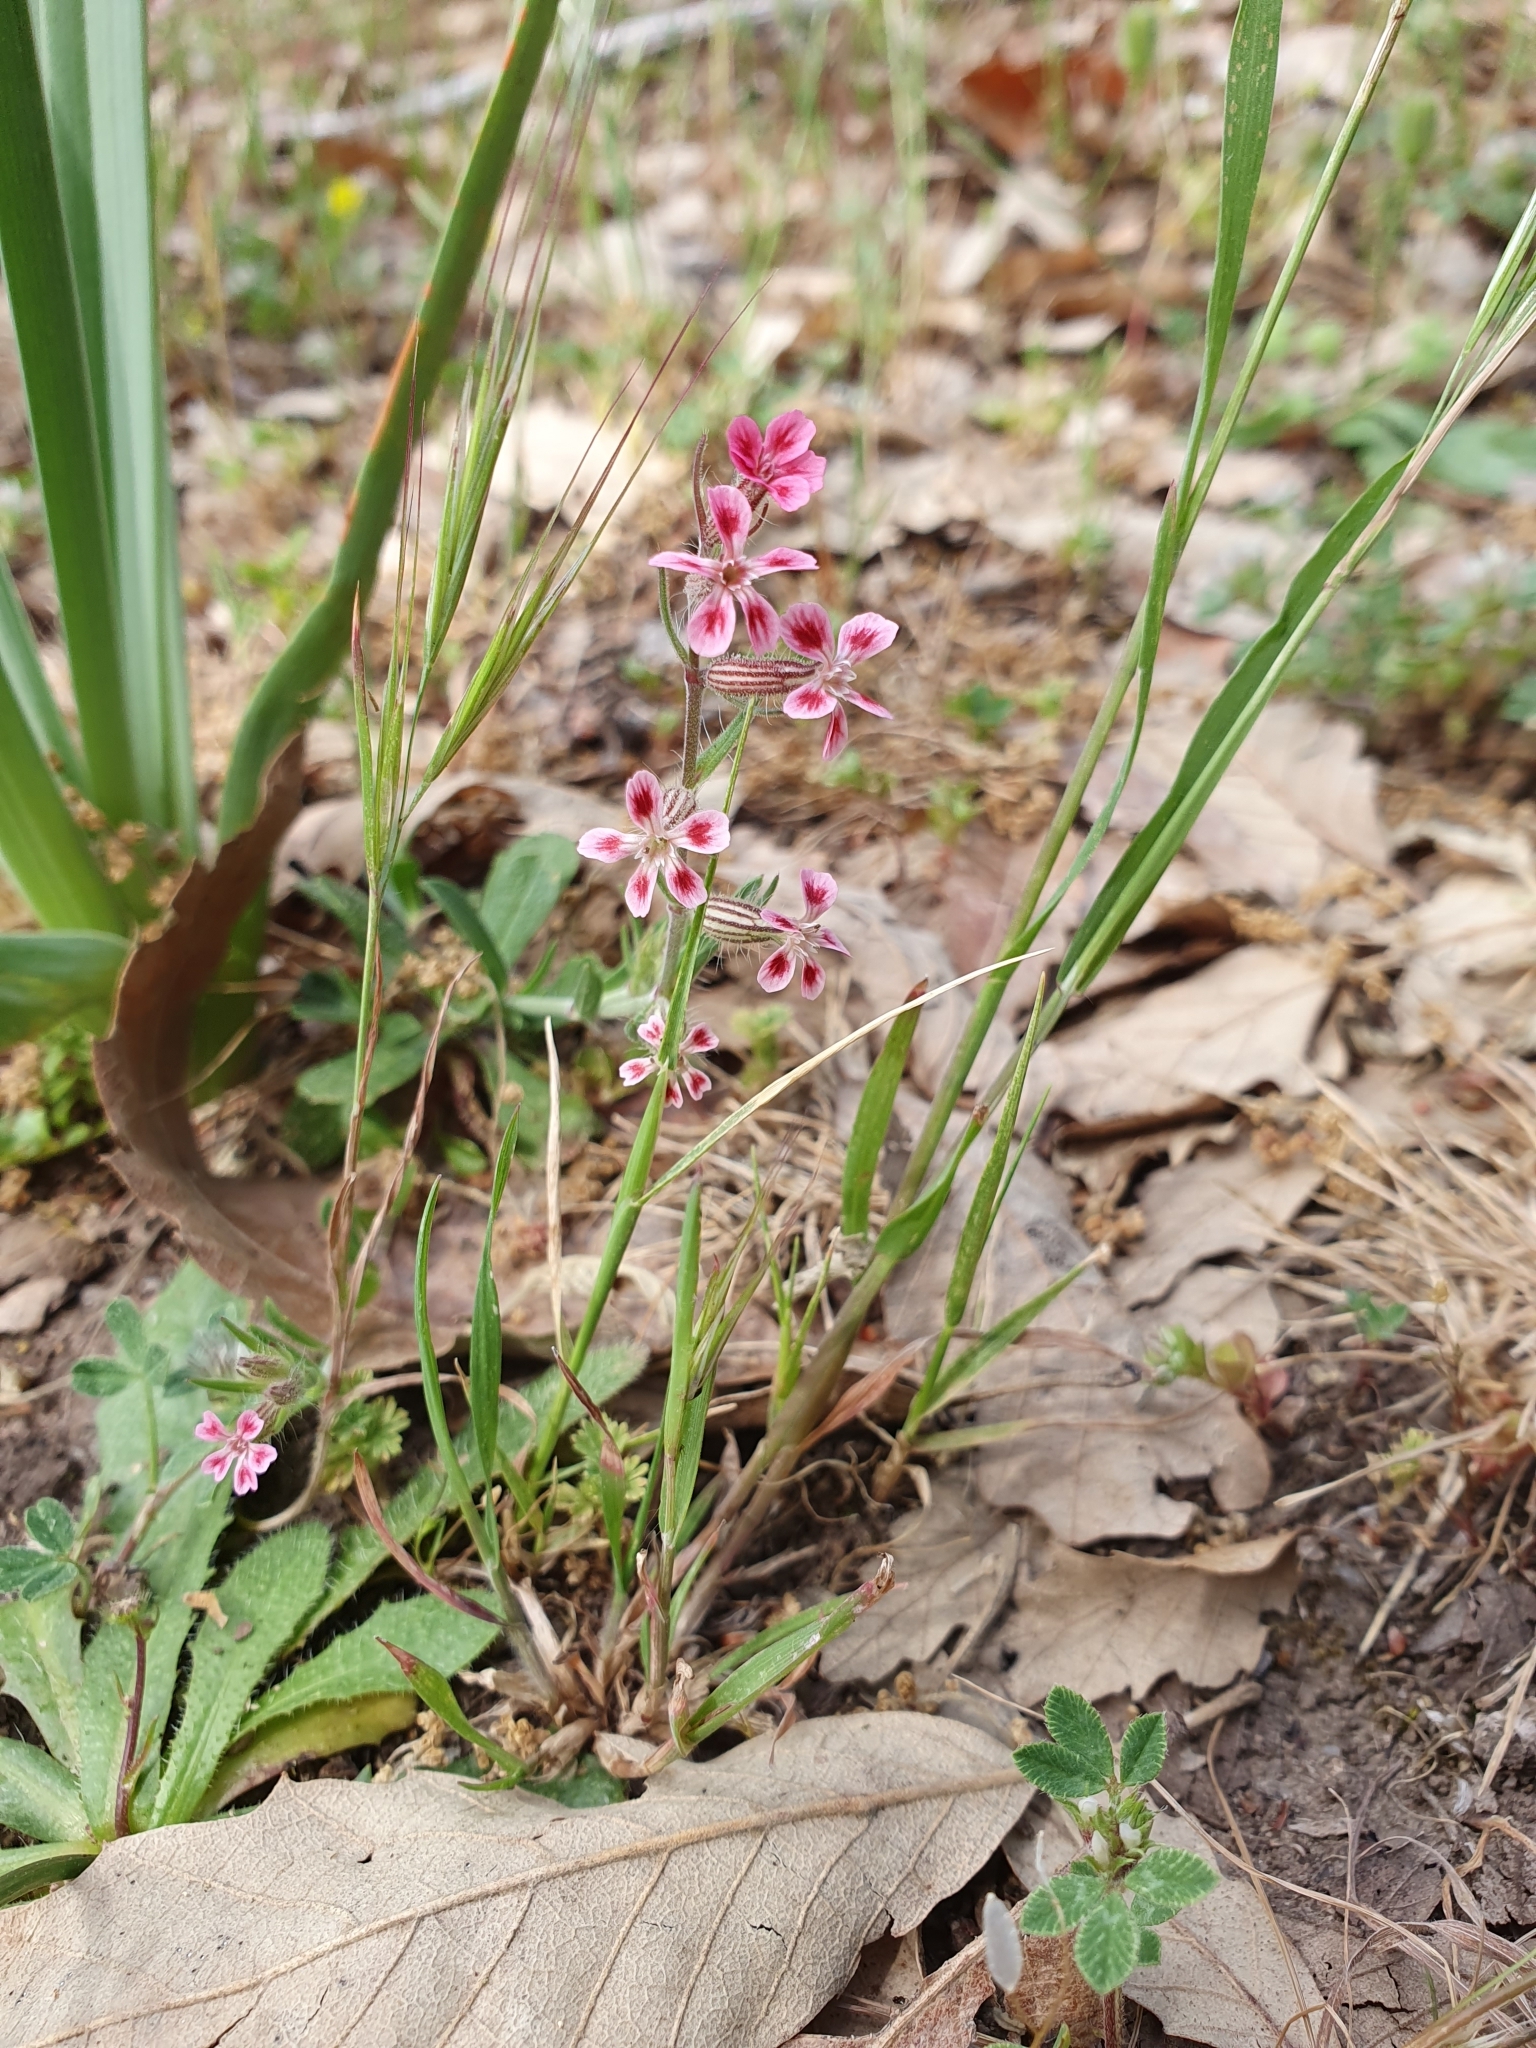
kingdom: Plantae
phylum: Tracheophyta
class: Magnoliopsida
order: Caryophyllales
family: Caryophyllaceae
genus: Silene
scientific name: Silene gallica
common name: Small-flowered catchfly
